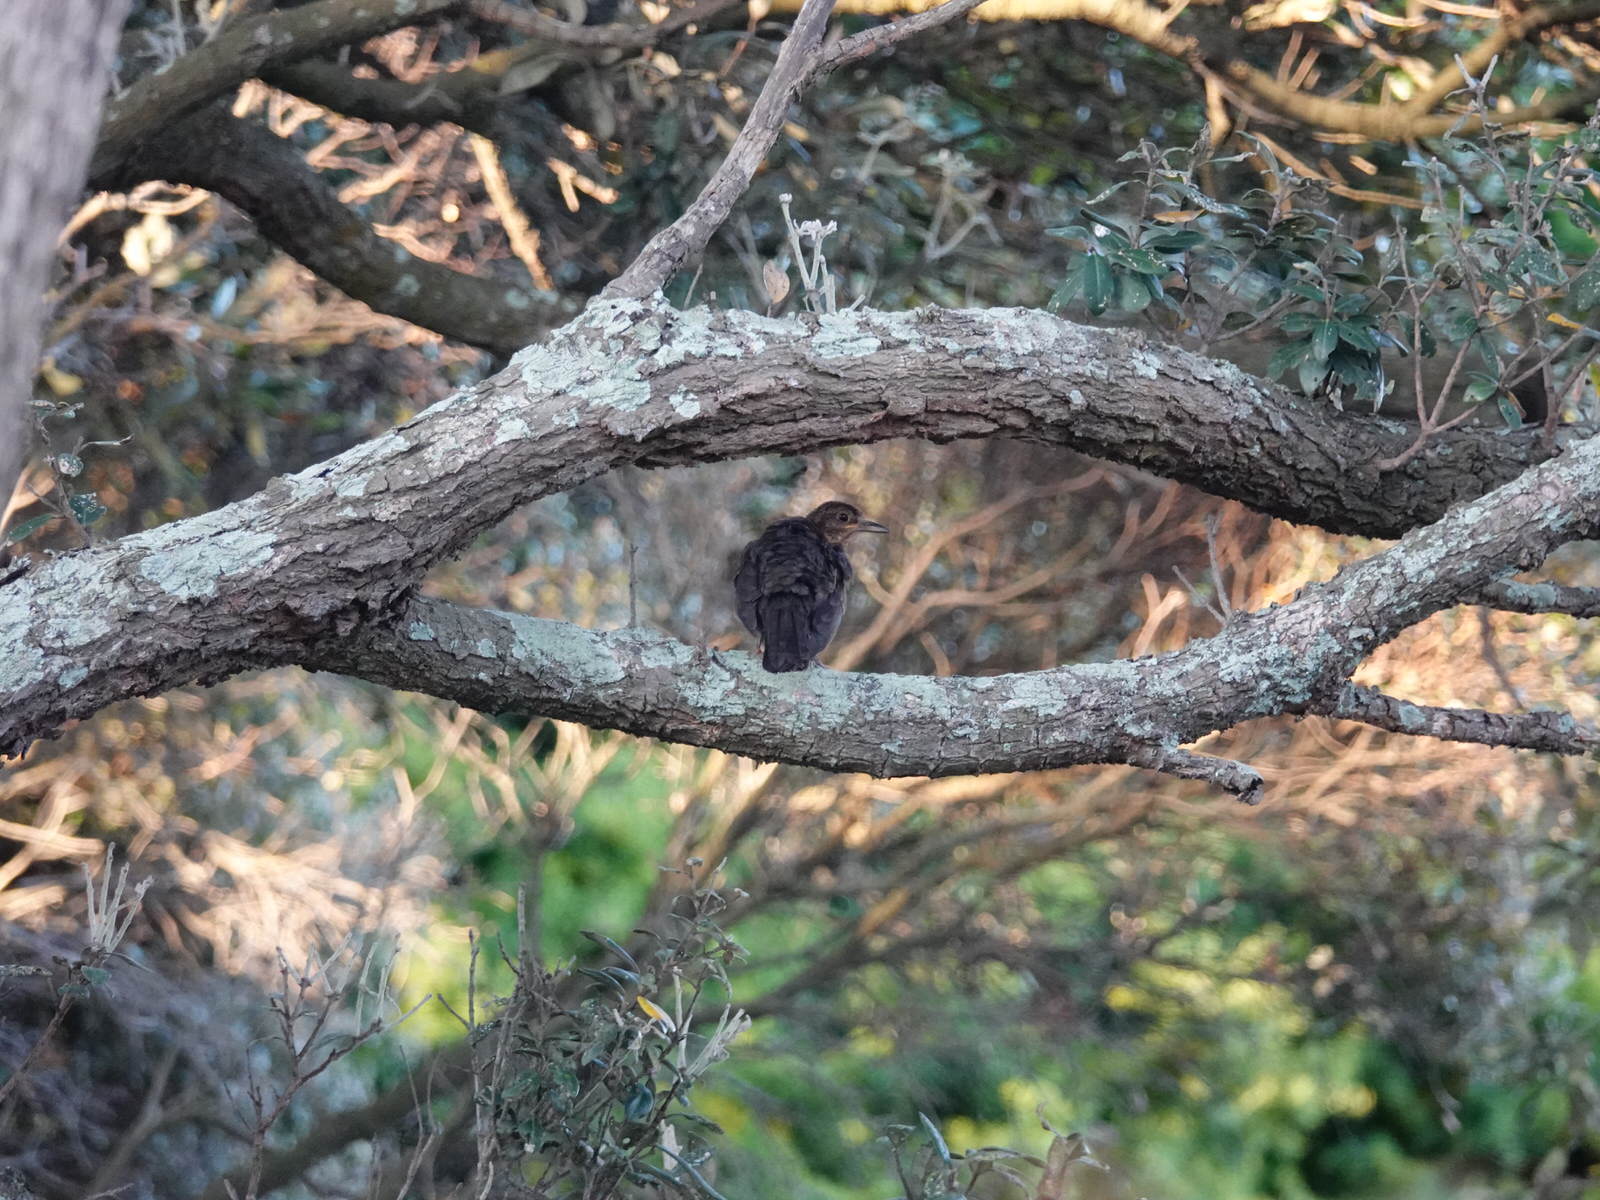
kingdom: Animalia
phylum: Chordata
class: Aves
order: Passeriformes
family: Turdidae
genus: Turdus
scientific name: Turdus merula
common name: Common blackbird
